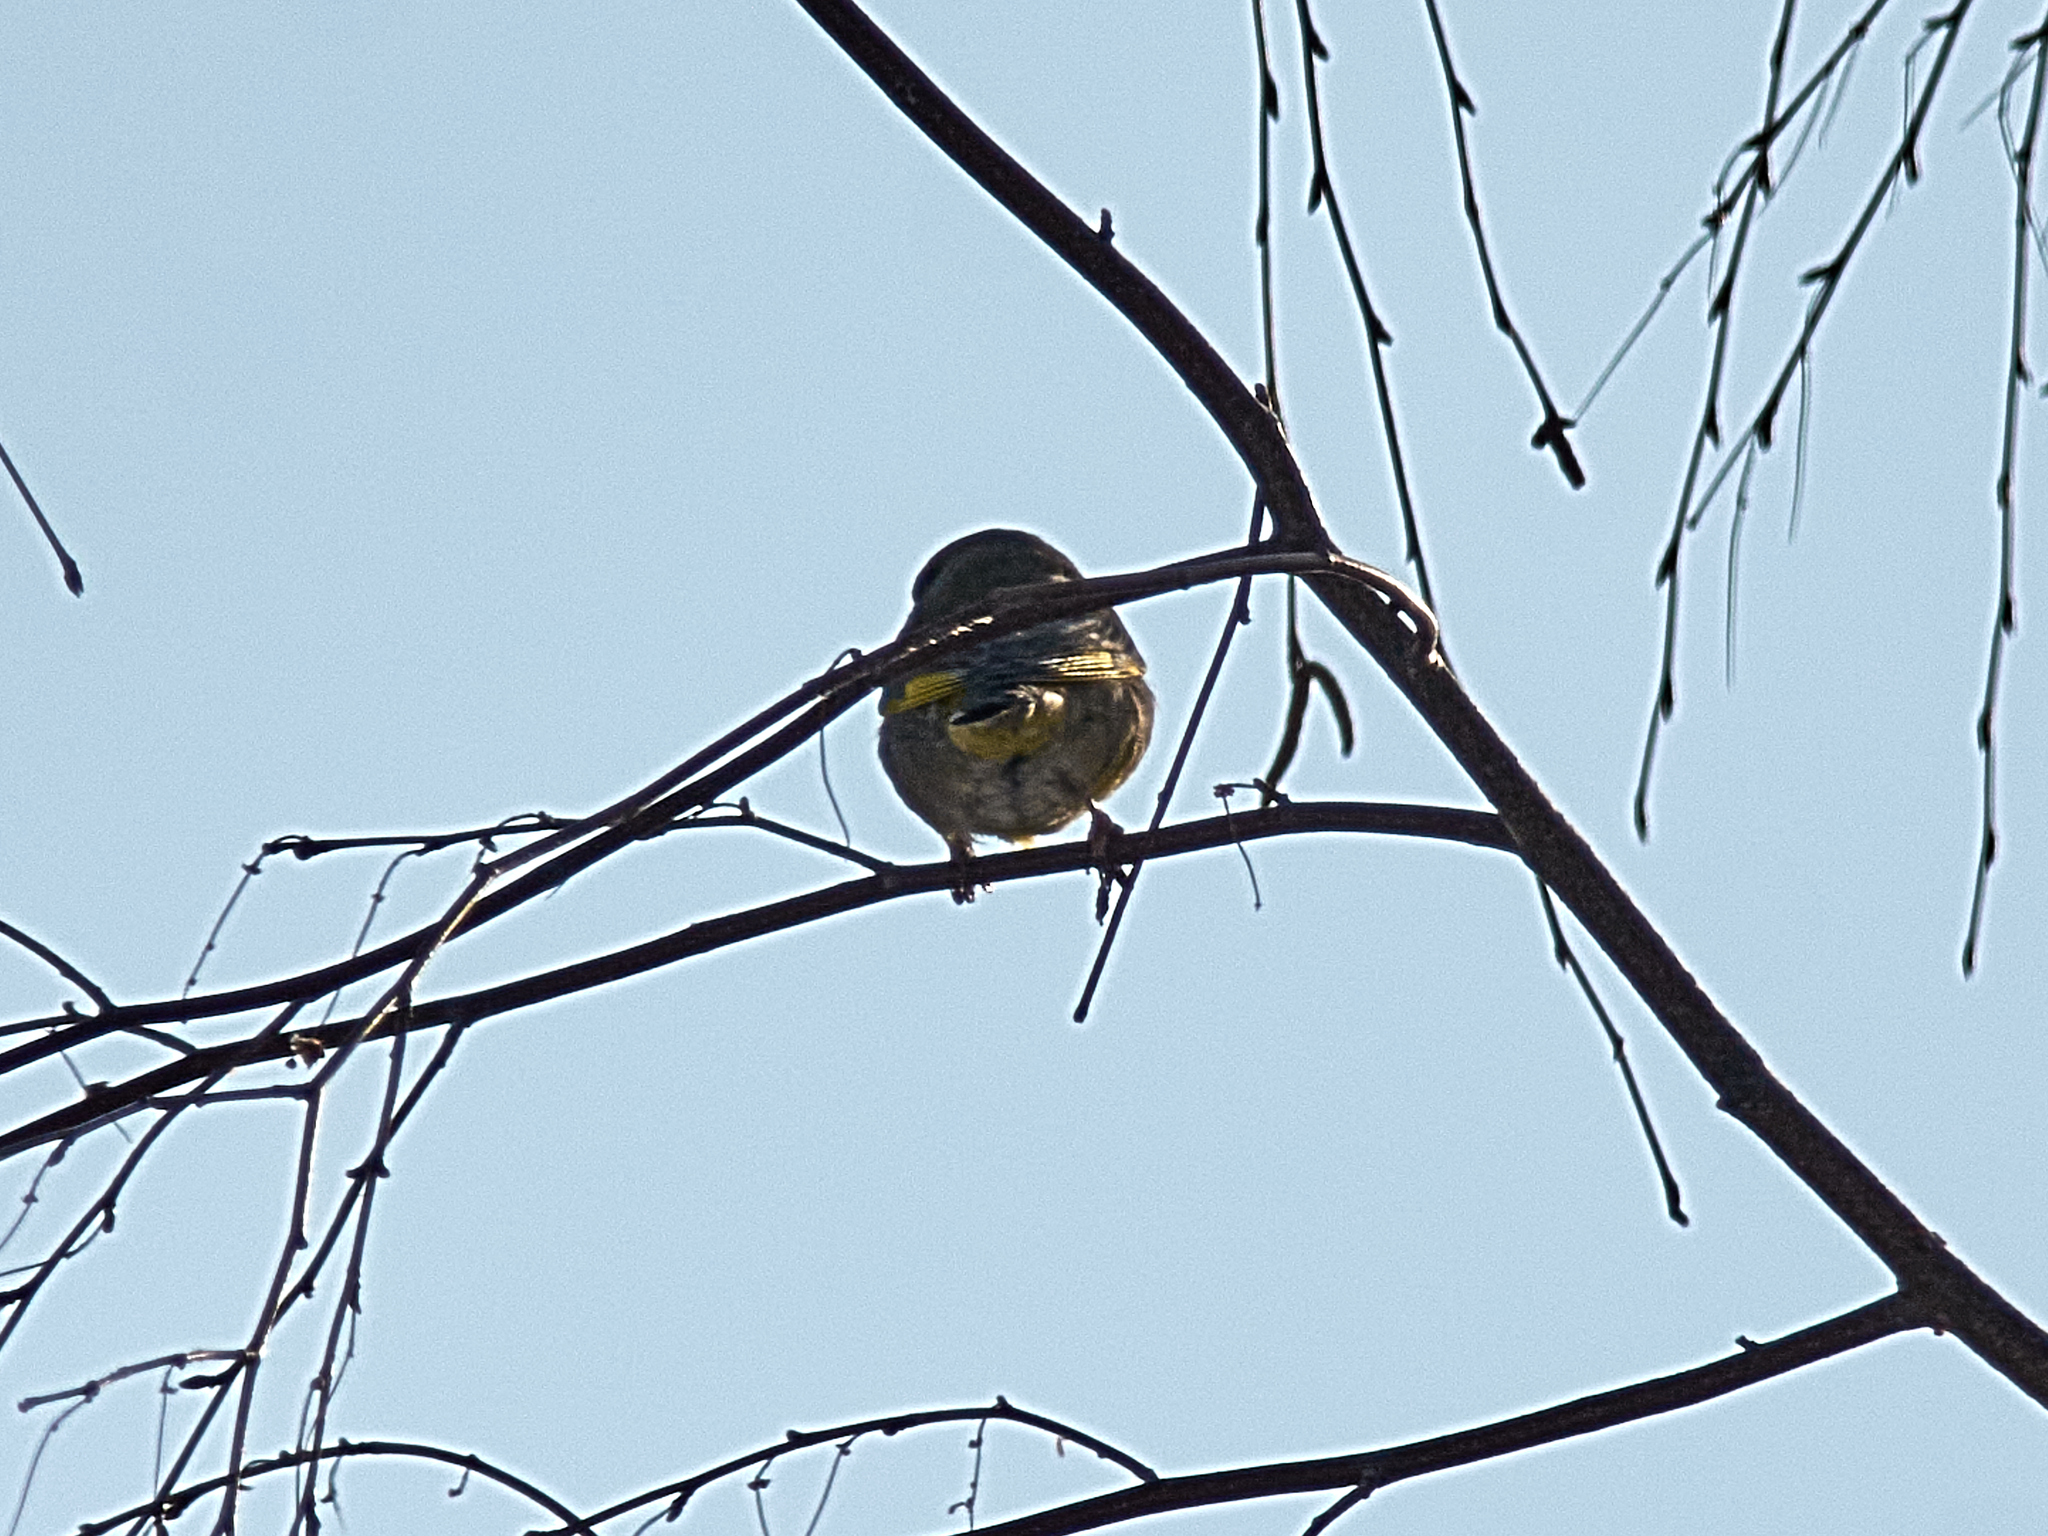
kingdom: Plantae
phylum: Tracheophyta
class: Liliopsida
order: Poales
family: Poaceae
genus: Chloris
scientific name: Chloris chloris
